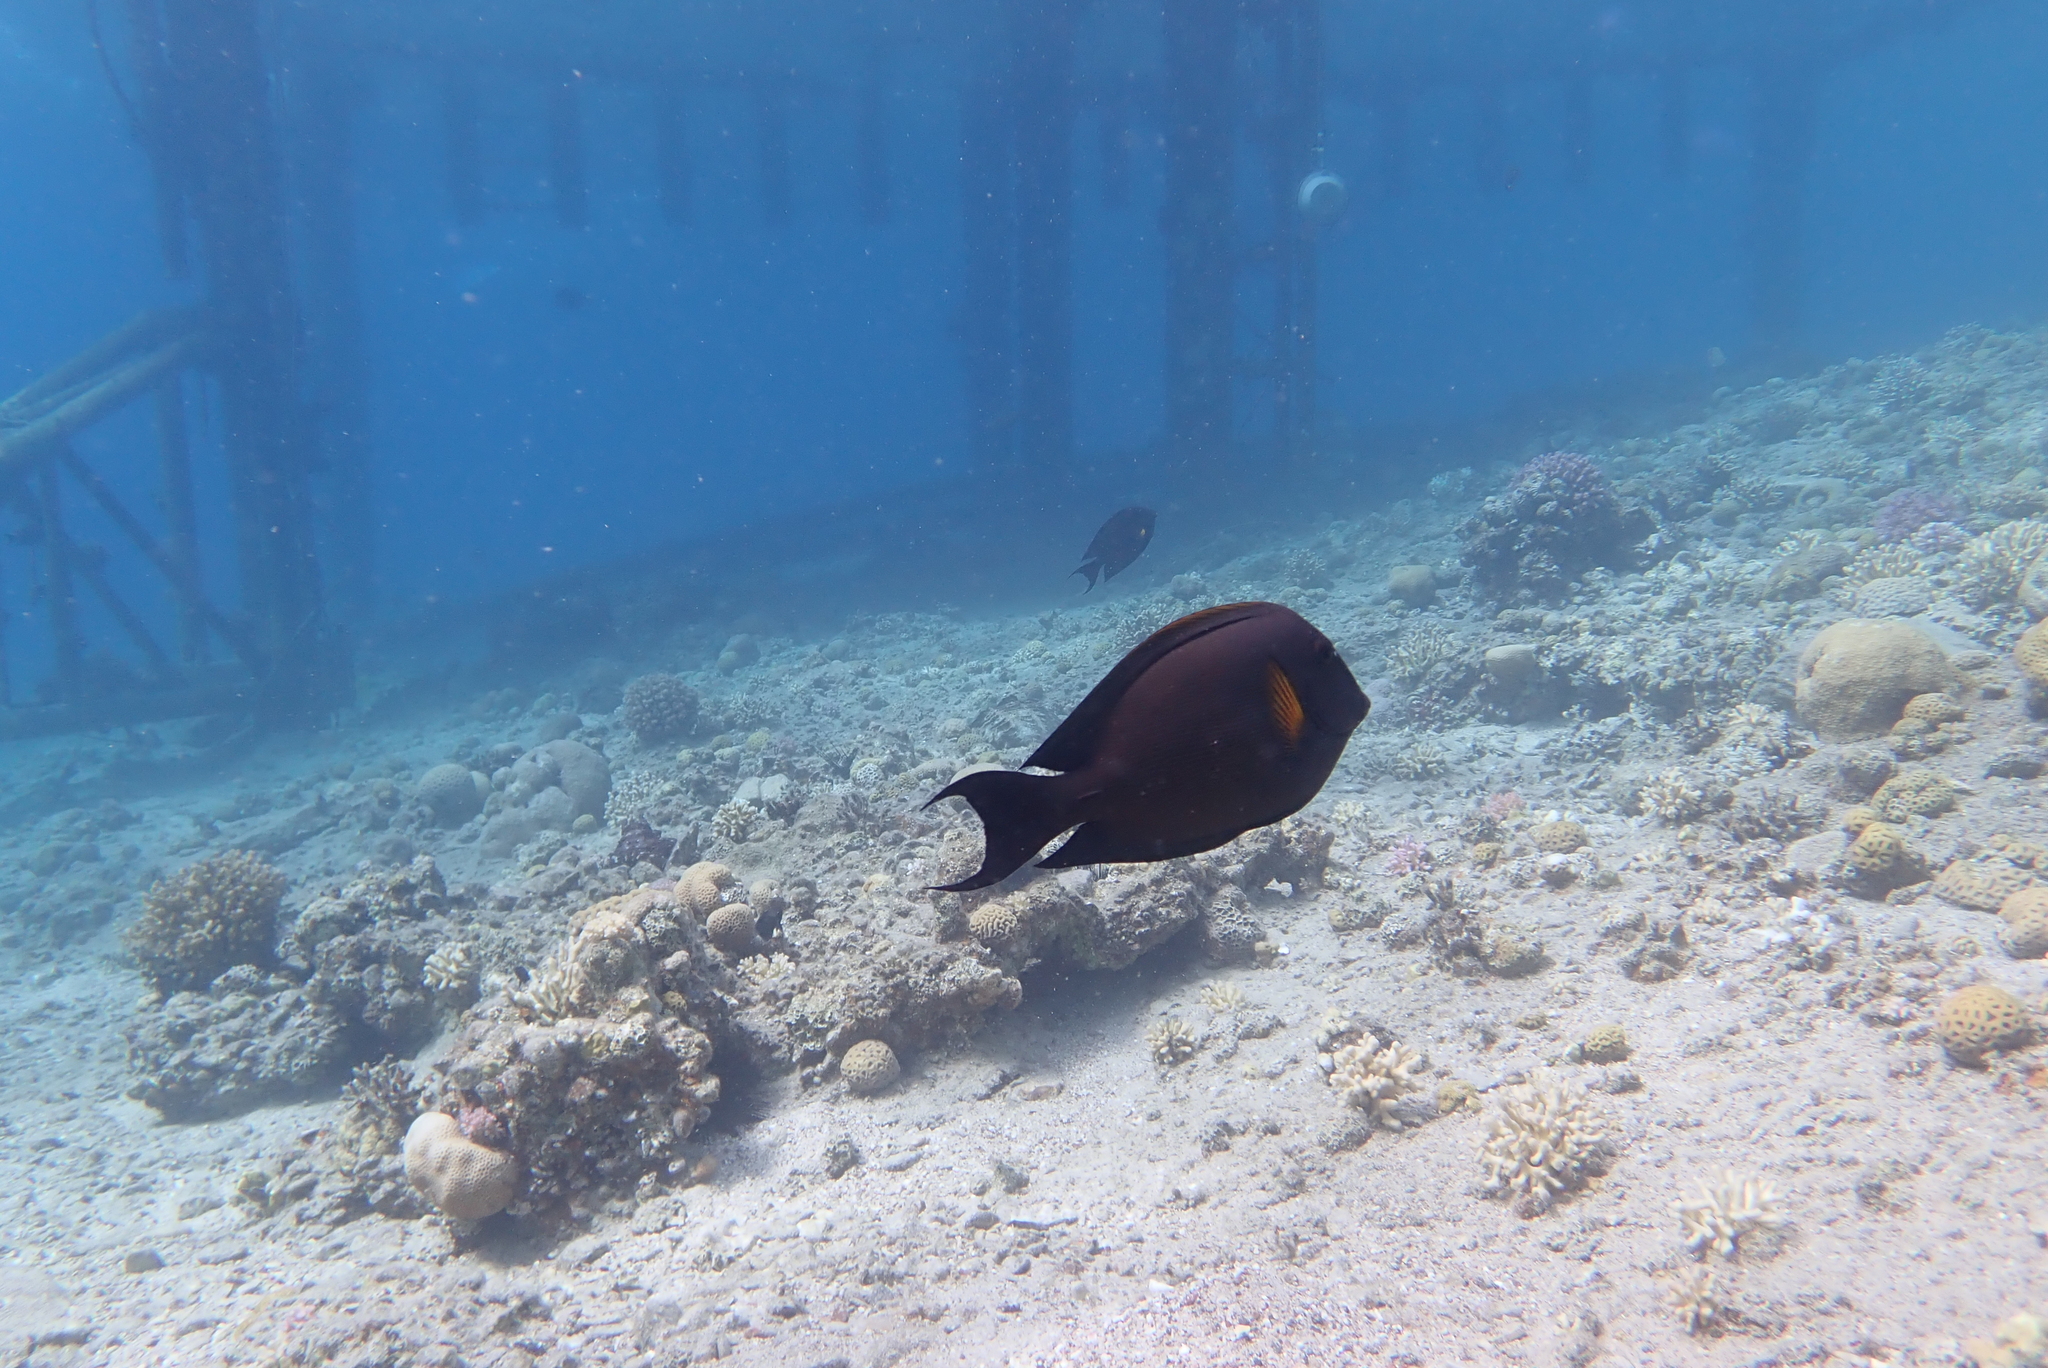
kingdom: Animalia
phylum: Chordata
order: Perciformes
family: Acanthuridae
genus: Ctenochaetus
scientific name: Ctenochaetus striatus
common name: Bristle-toothed surgeonfish
